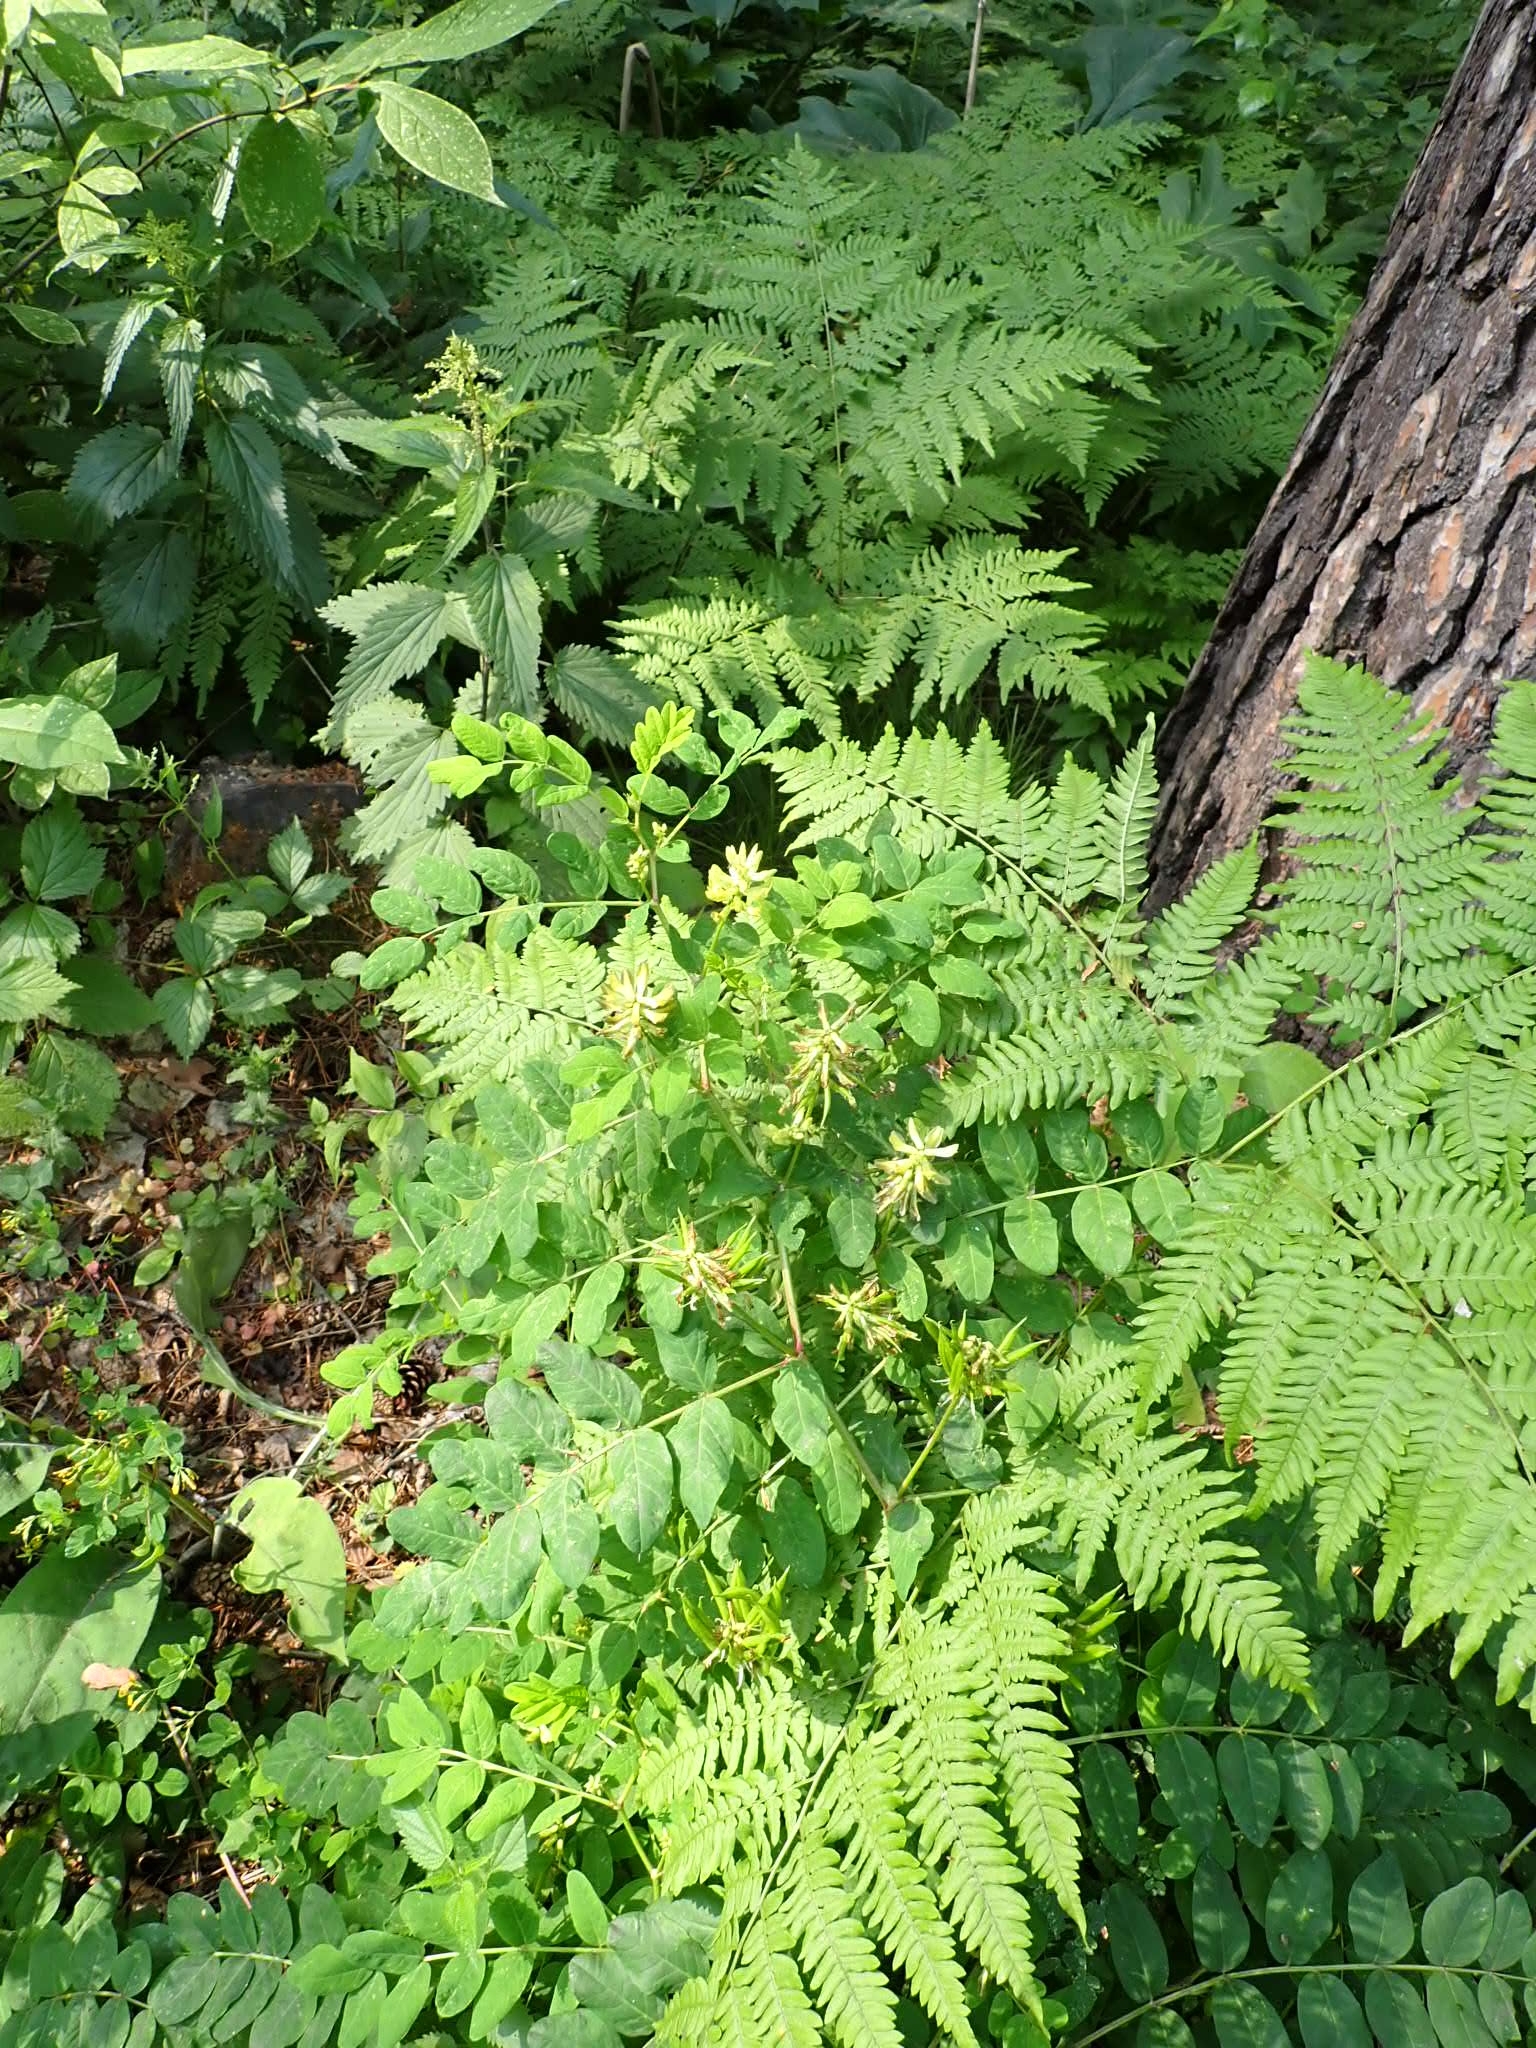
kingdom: Plantae
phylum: Tracheophyta
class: Magnoliopsida
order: Fabales
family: Fabaceae
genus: Astragalus
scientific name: Astragalus glycyphyllos
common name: Wild liquorice
